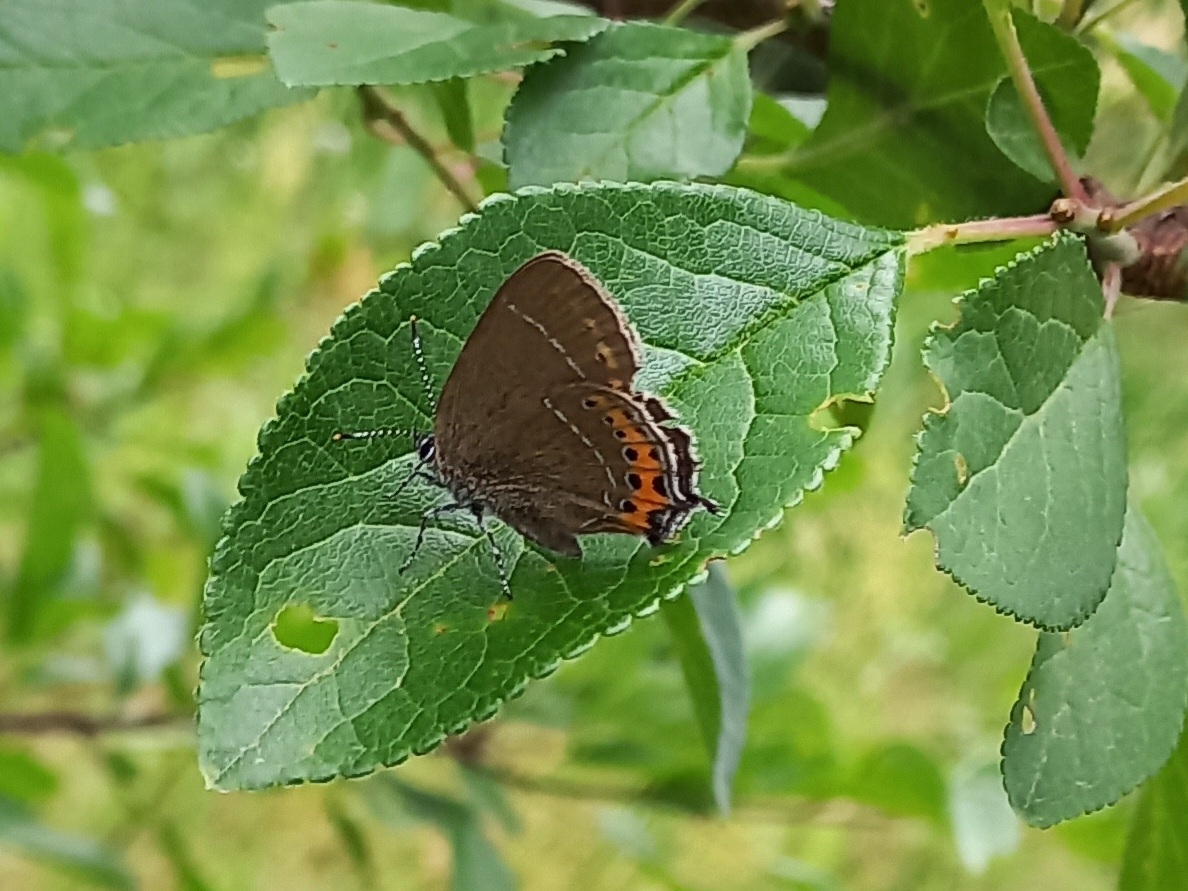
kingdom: Animalia
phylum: Arthropoda
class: Insecta
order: Lepidoptera
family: Lycaenidae
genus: Fixsenia
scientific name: Fixsenia pruni
